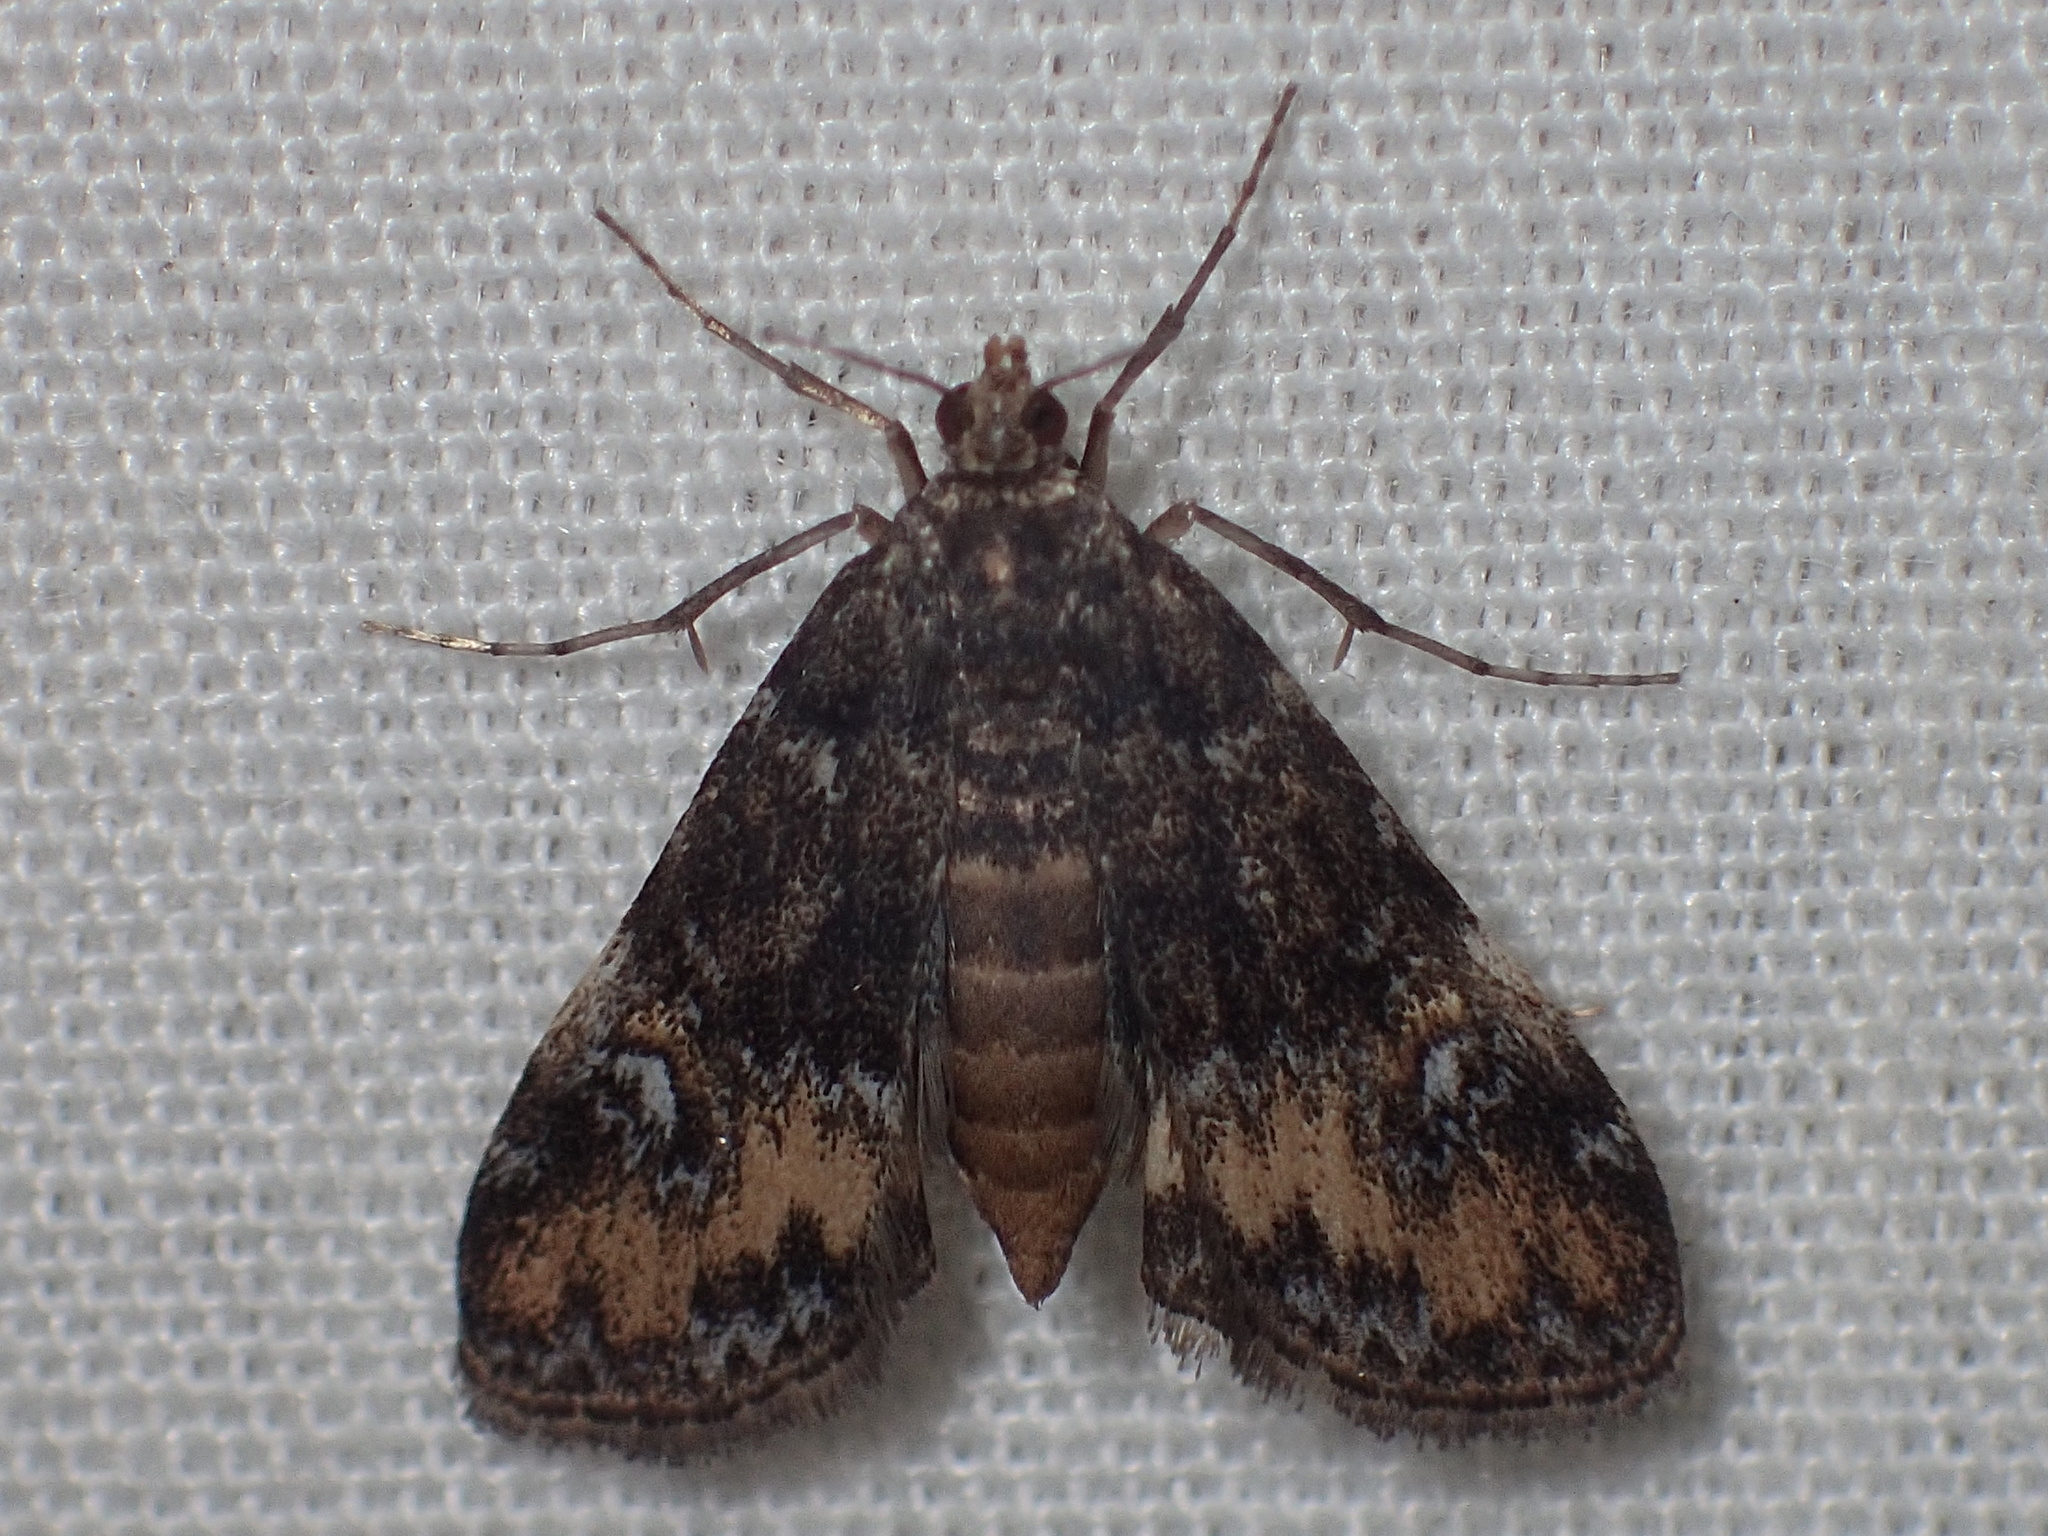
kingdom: Animalia
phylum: Arthropoda
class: Insecta
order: Lepidoptera
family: Crambidae
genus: Elophila
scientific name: Elophila obliteralis
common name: Waterlily leafcutter moth
